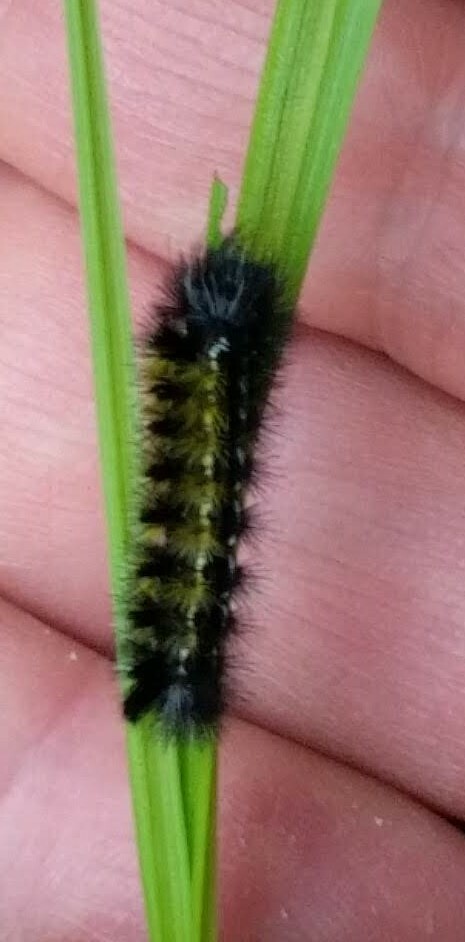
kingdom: Animalia
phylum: Arthropoda
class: Insecta
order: Lepidoptera
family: Erebidae
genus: Ctenucha
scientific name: Ctenucha virginica
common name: Virginia ctenucha moth
